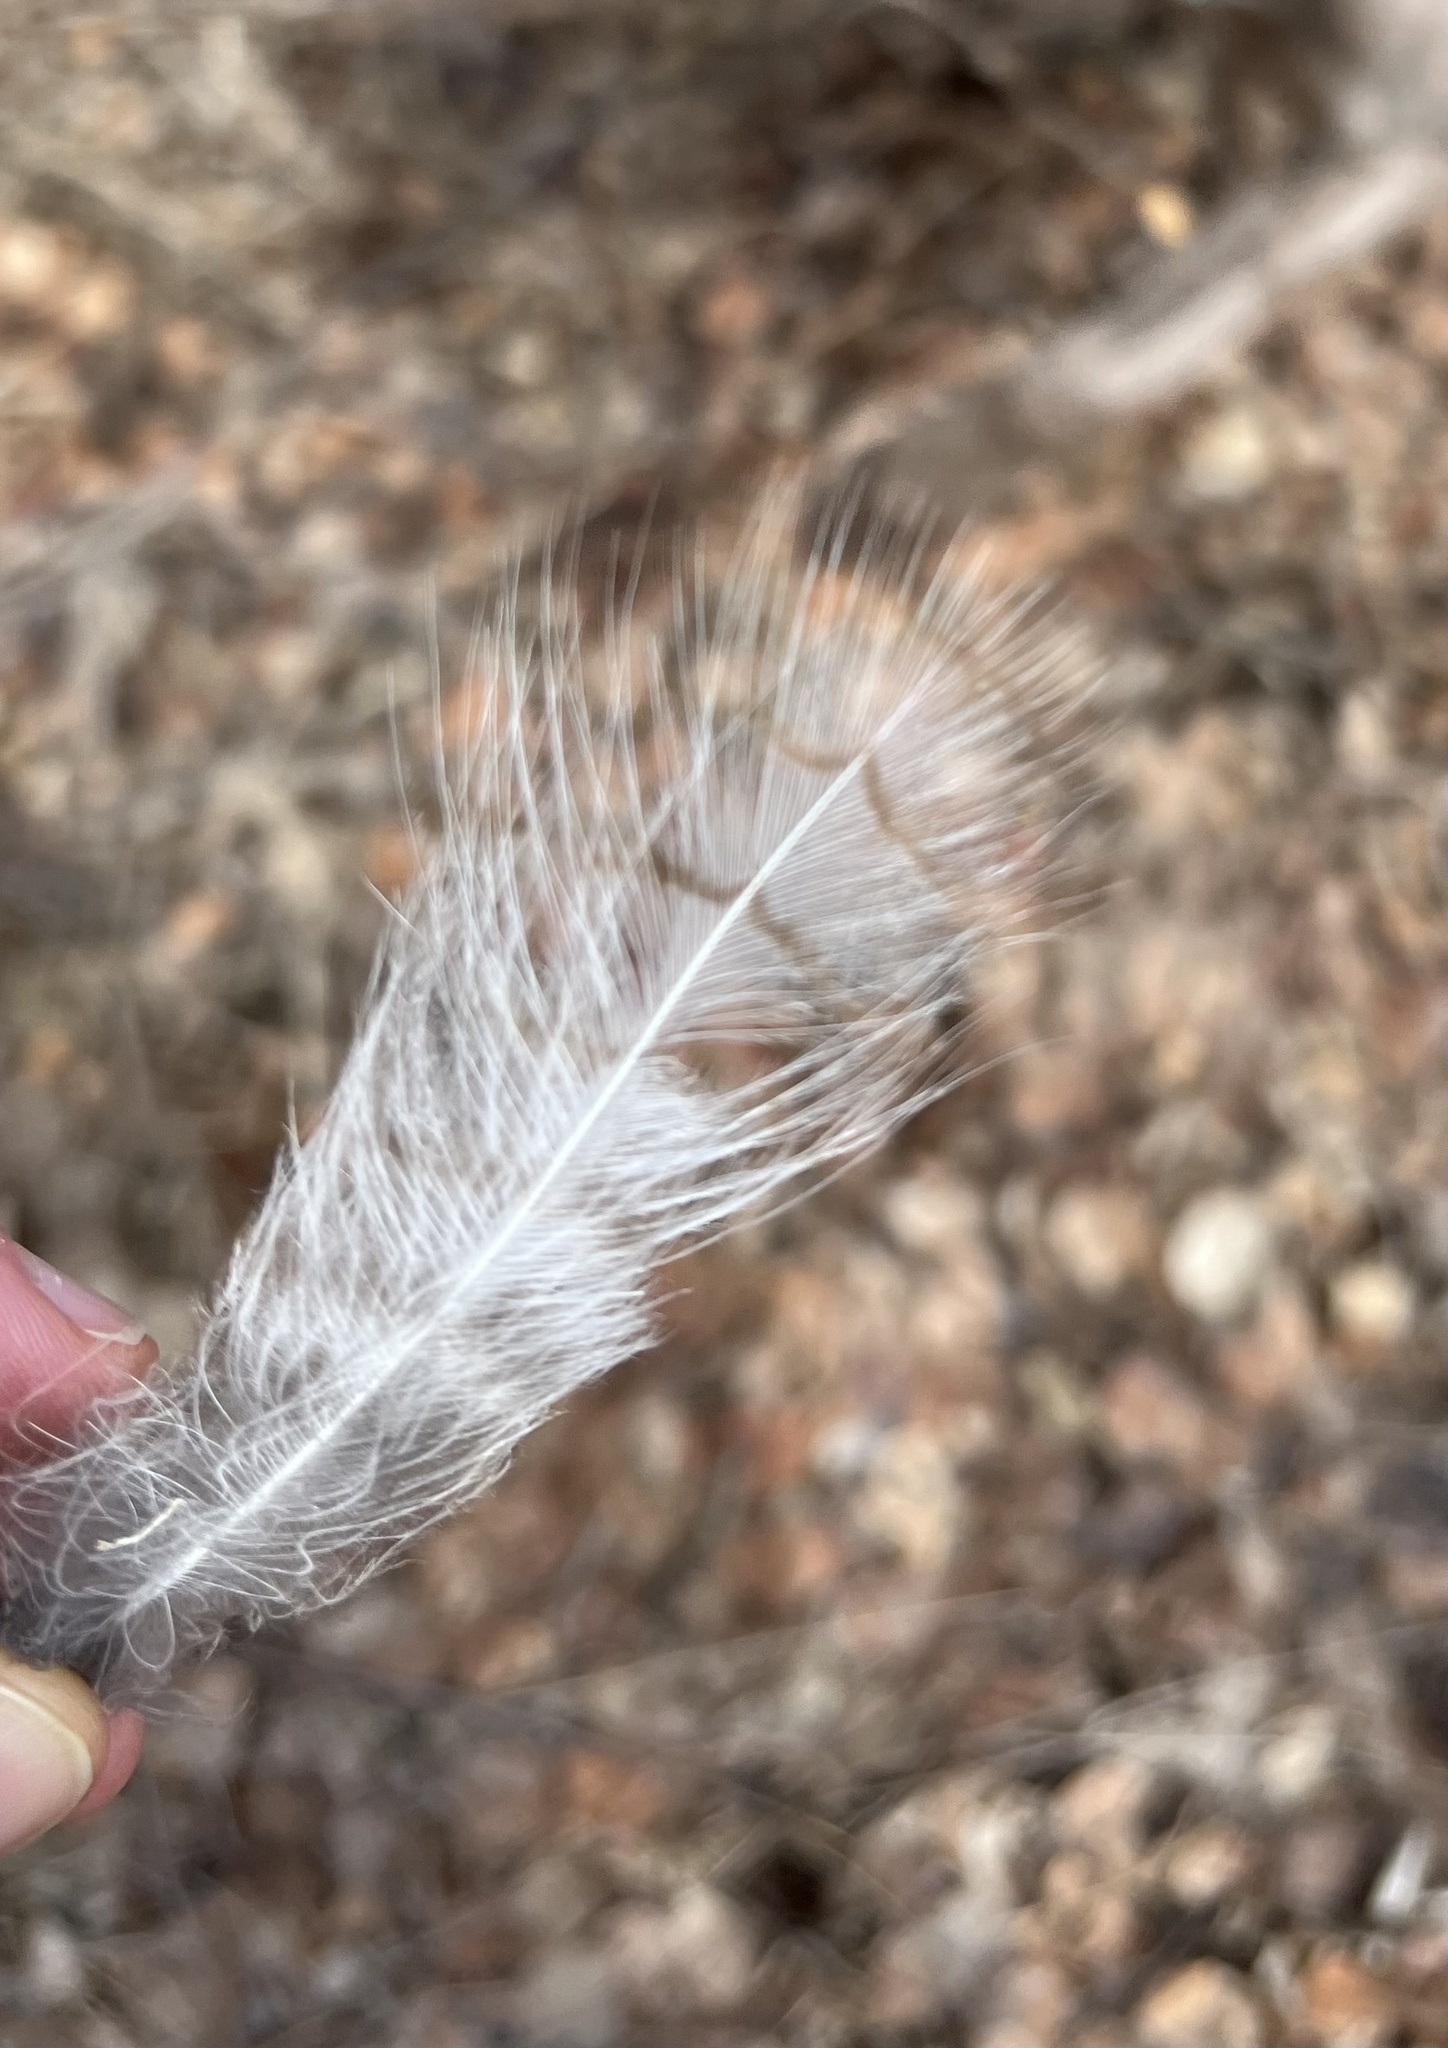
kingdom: Animalia
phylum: Chordata
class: Aves
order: Strigiformes
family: Strigidae
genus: Bubo
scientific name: Bubo virginianus
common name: Great horned owl
